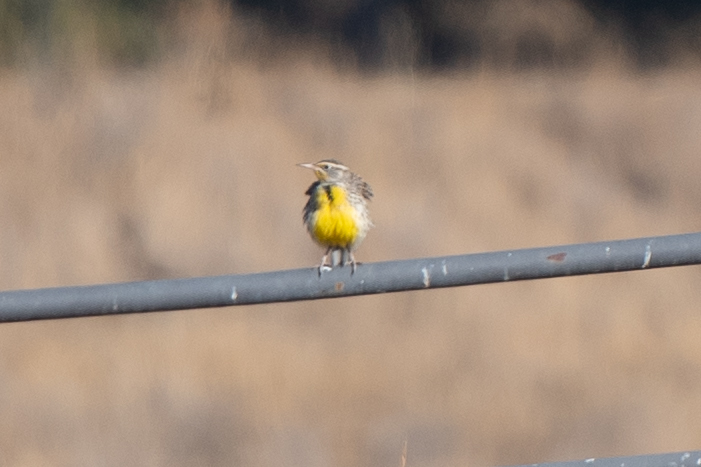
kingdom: Animalia
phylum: Chordata
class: Aves
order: Passeriformes
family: Icteridae
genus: Sturnella
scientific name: Sturnella neglecta
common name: Western meadowlark
